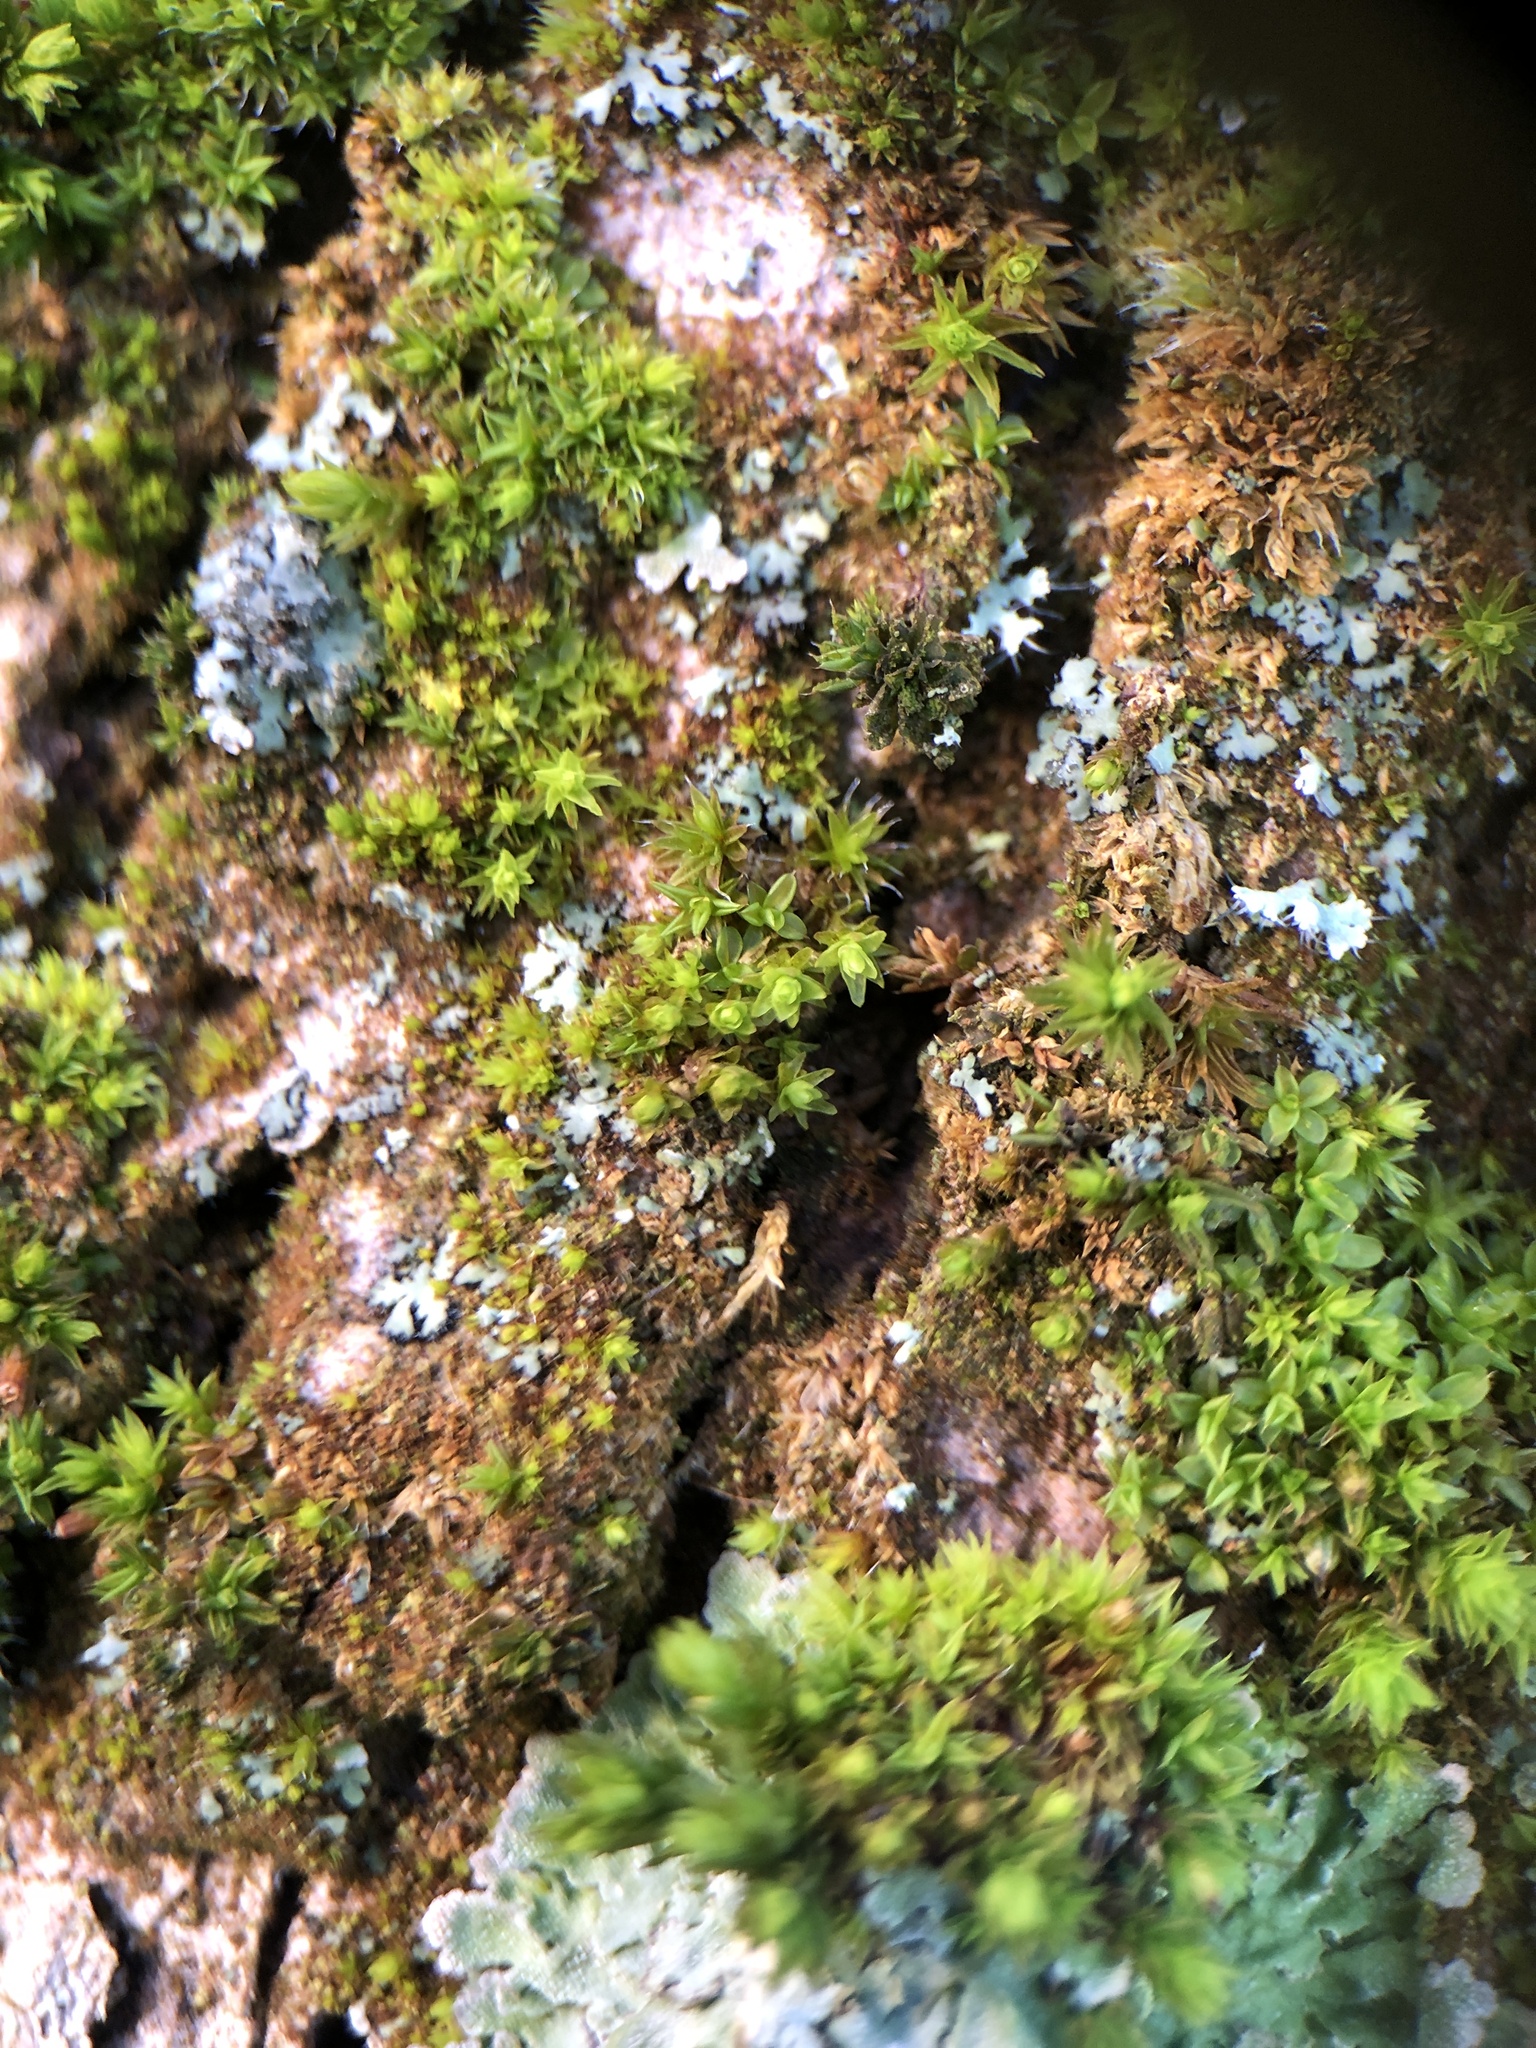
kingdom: Plantae
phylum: Bryophyta
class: Bryopsida
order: Orthotrichales
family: Orthotrichaceae
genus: Nyholmiella
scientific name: Nyholmiella obtusifolia
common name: Blunt-leaved bristle-moss
